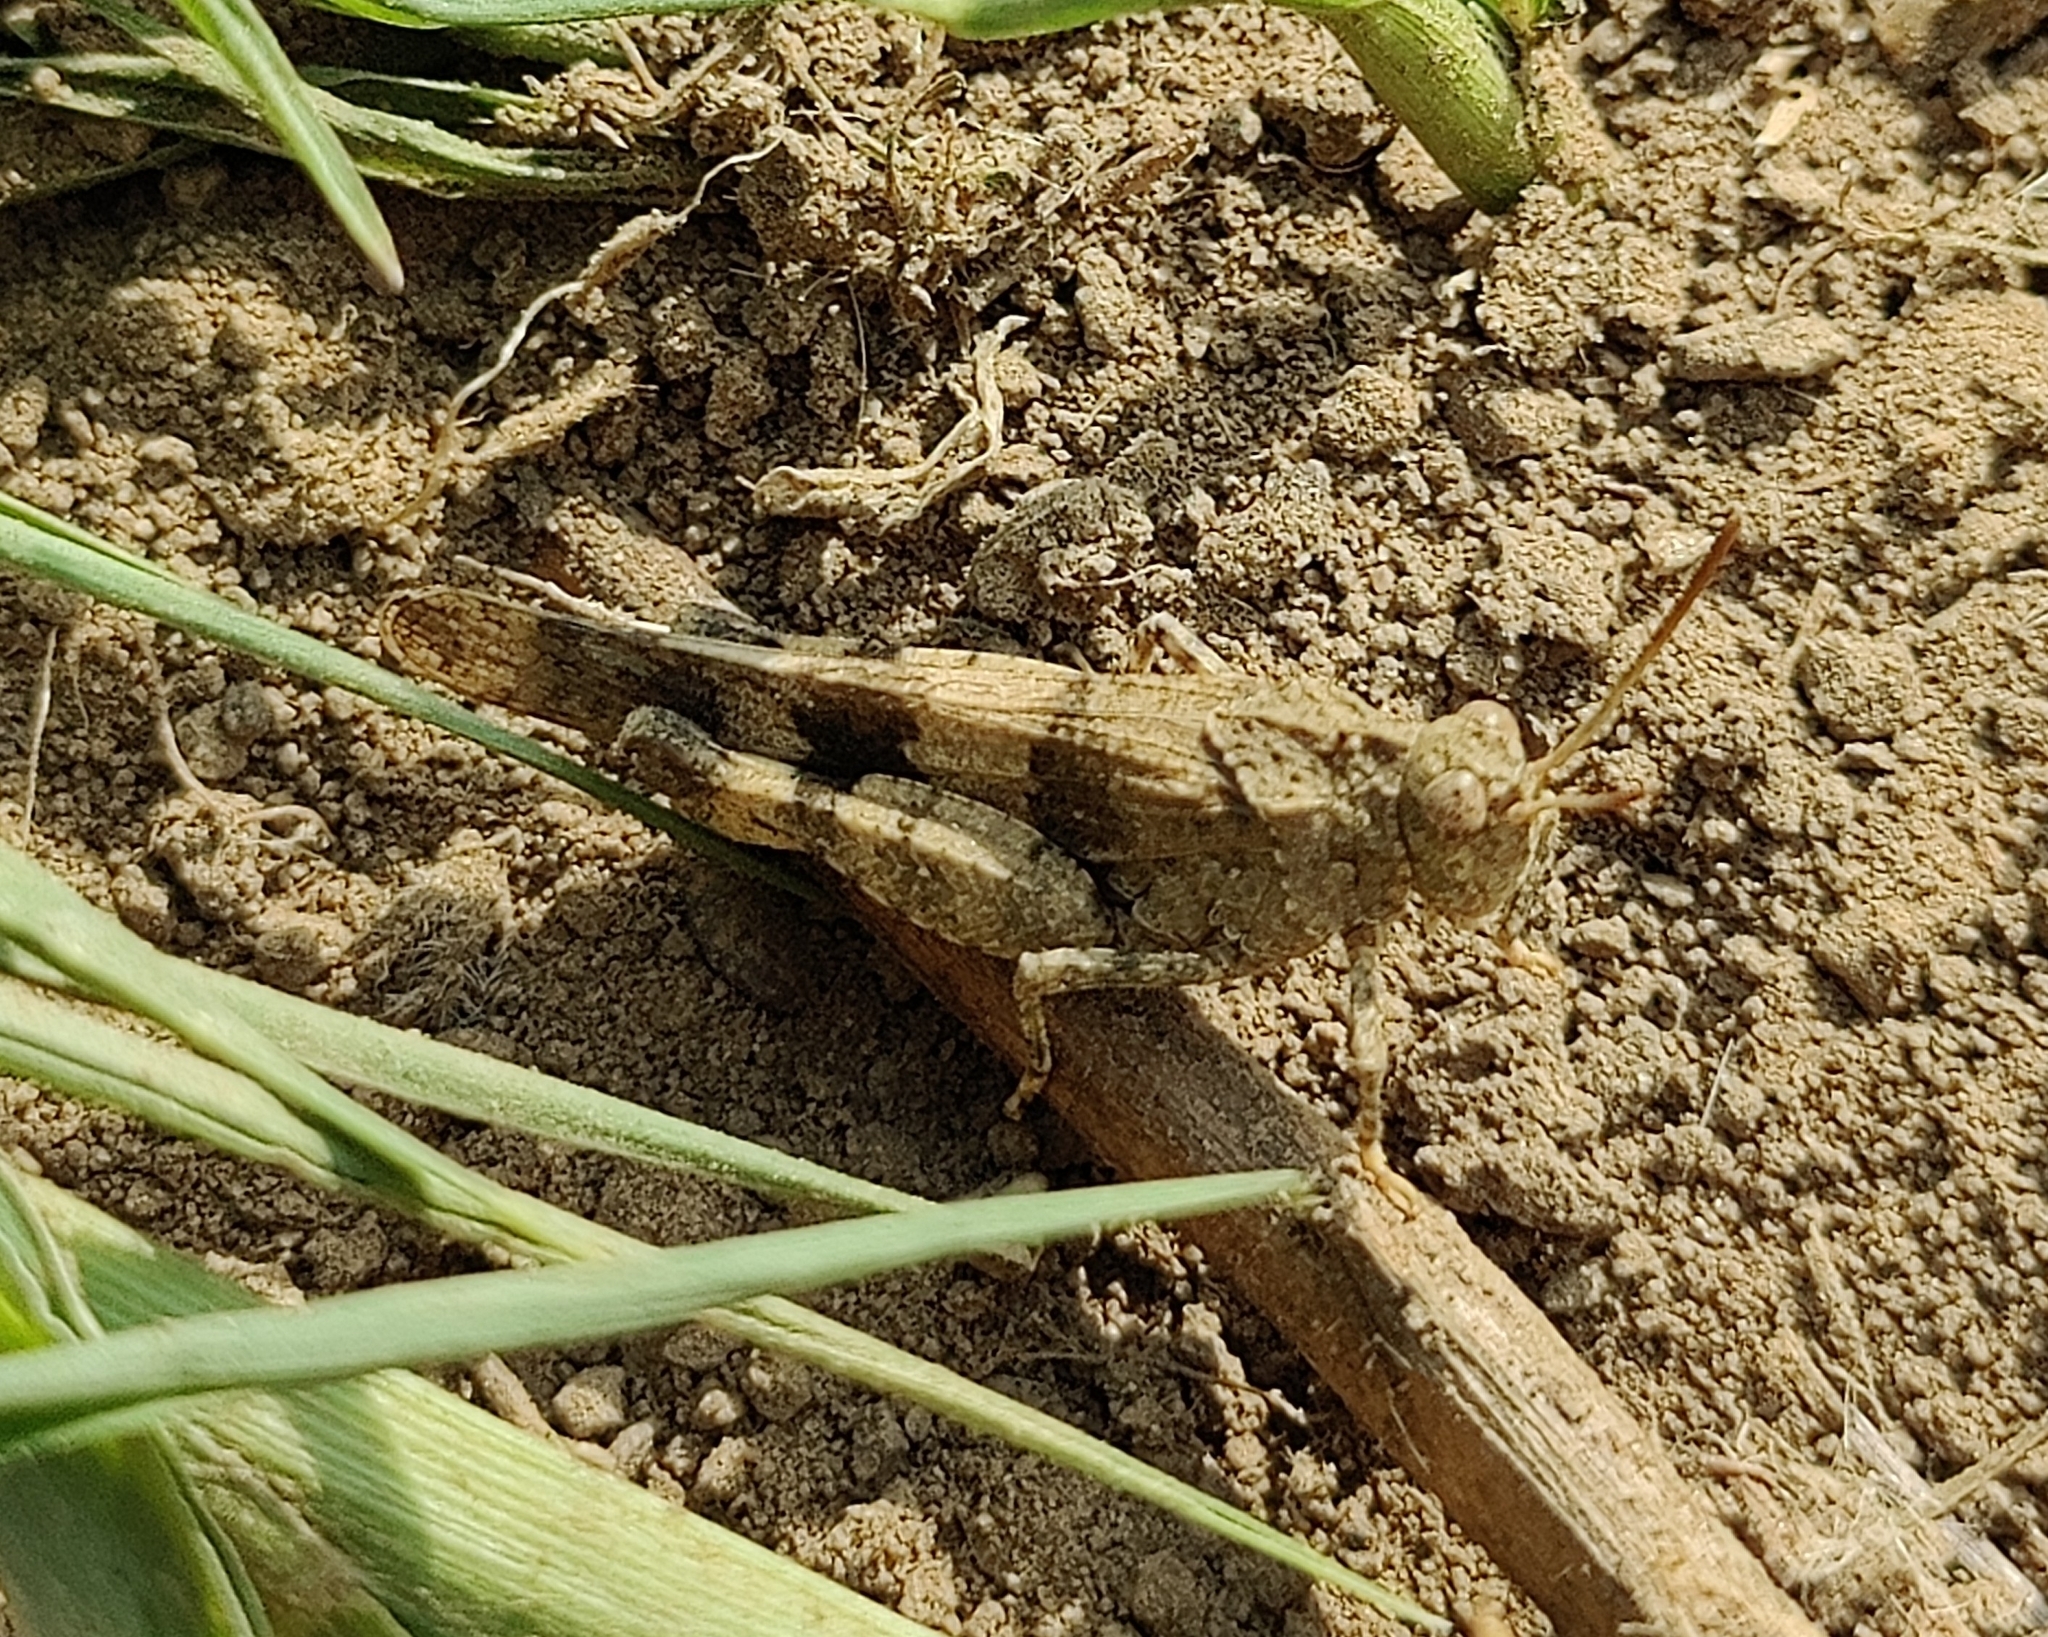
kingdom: Animalia
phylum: Arthropoda
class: Insecta
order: Orthoptera
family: Acrididae
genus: Oedipoda
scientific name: Oedipoda caerulescens
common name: Blue-winged grasshopper
